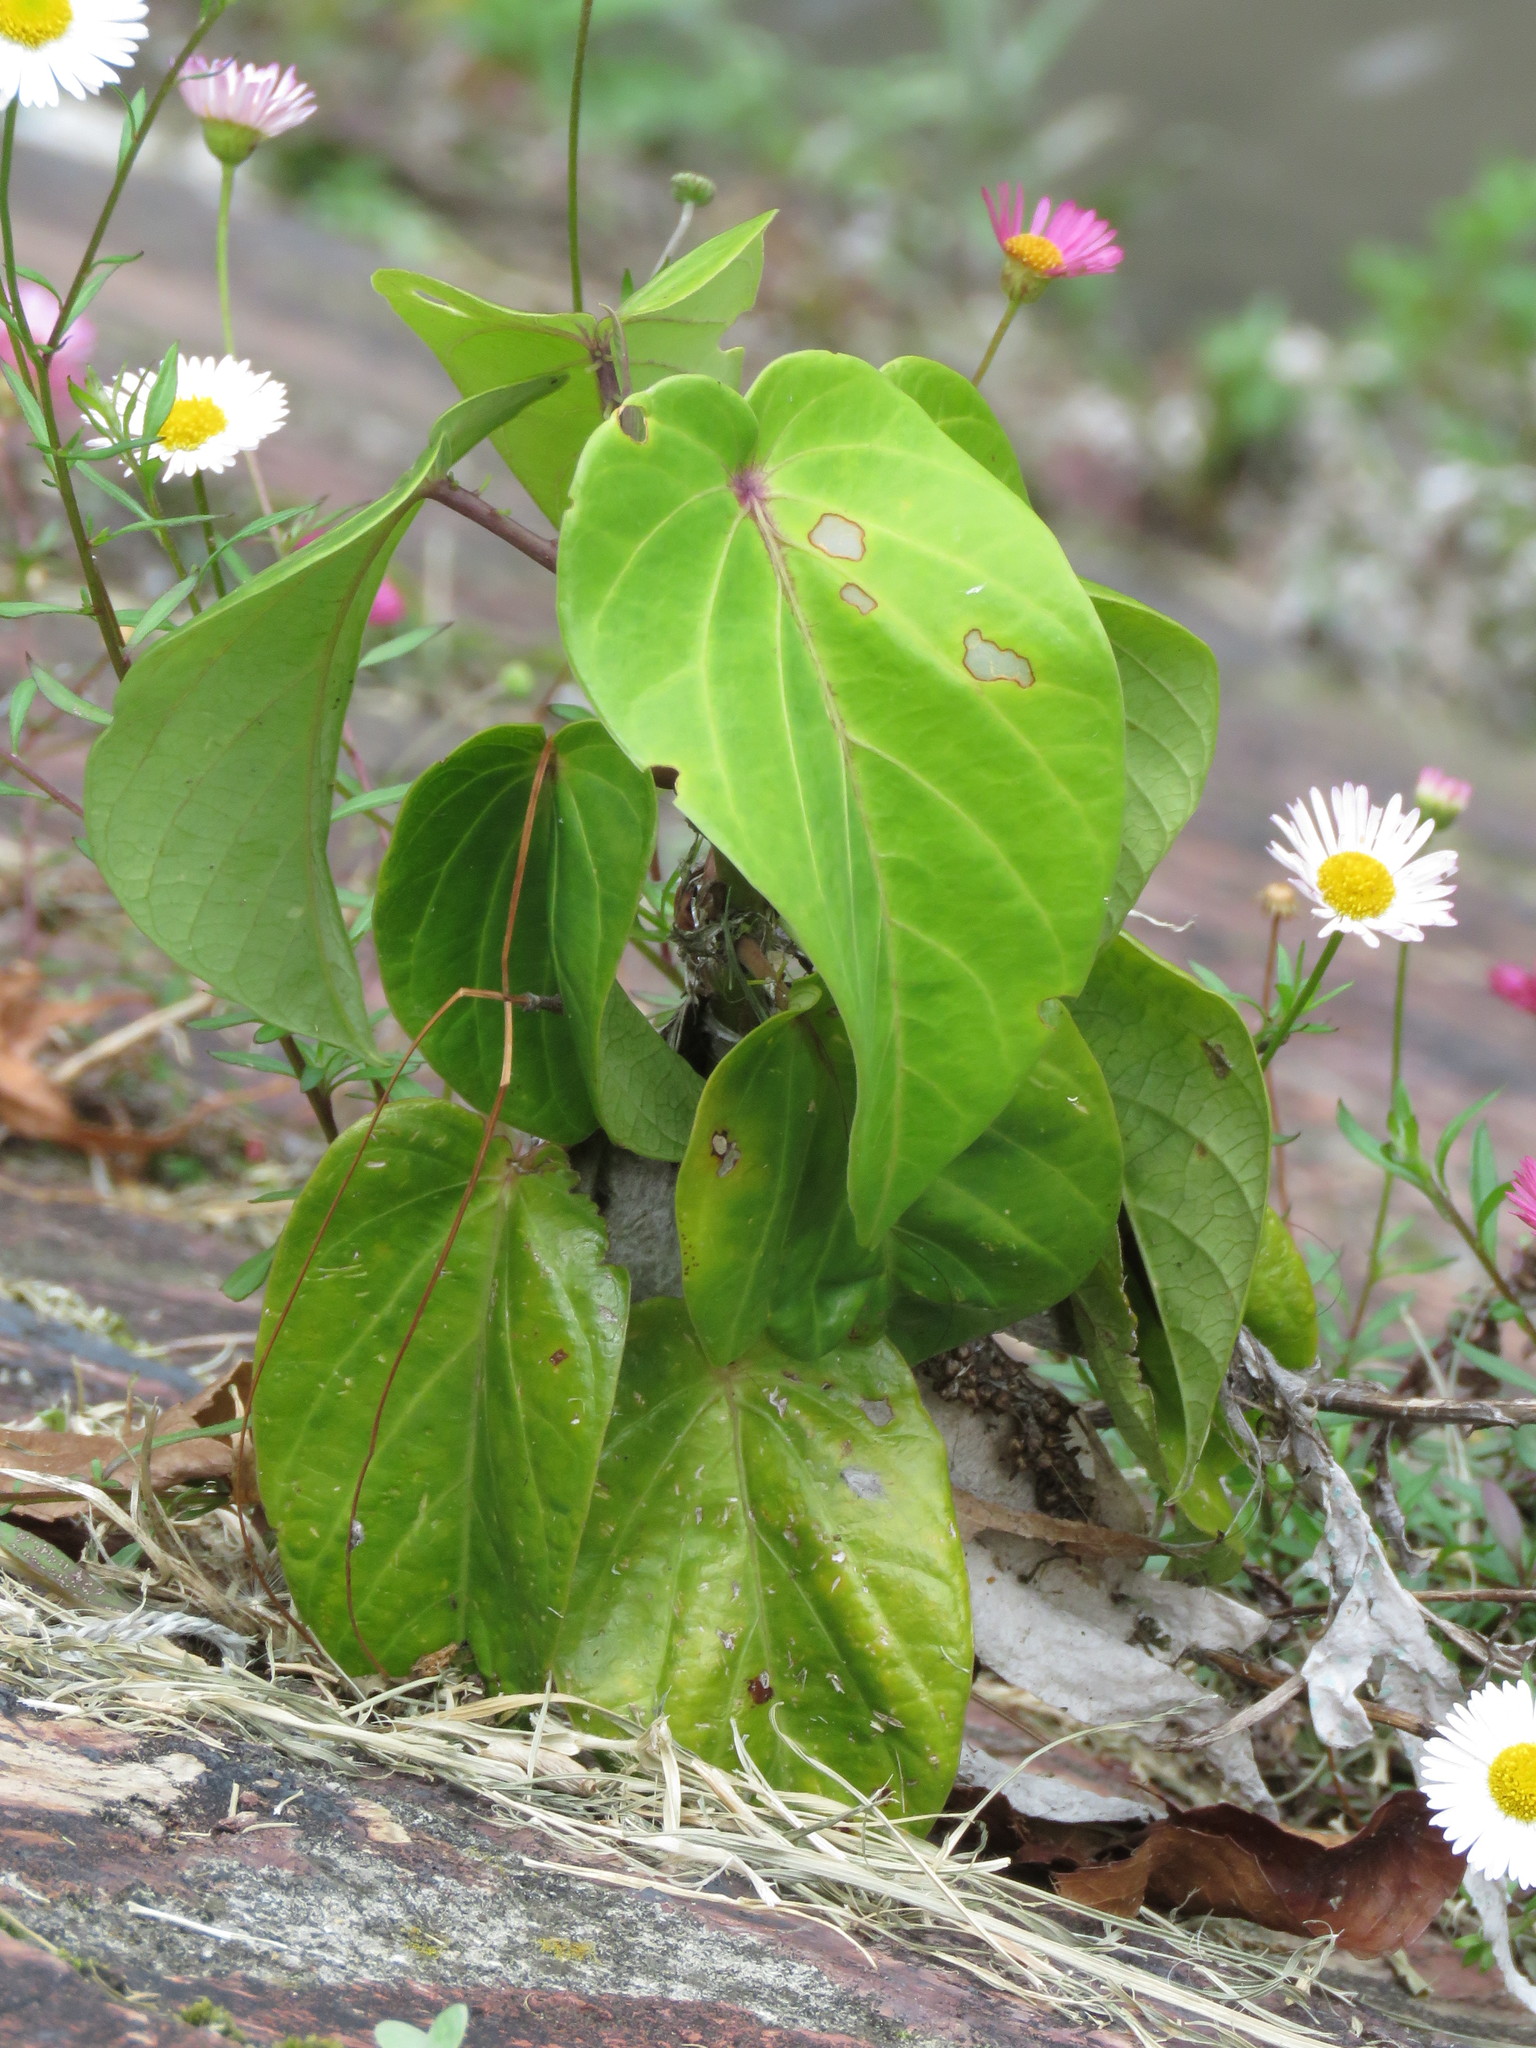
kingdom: Plantae
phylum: Tracheophyta
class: Magnoliopsida
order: Malpighiales
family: Passifloraceae
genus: Passiflora
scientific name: Passiflora ligularis
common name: Sweet granadilla
